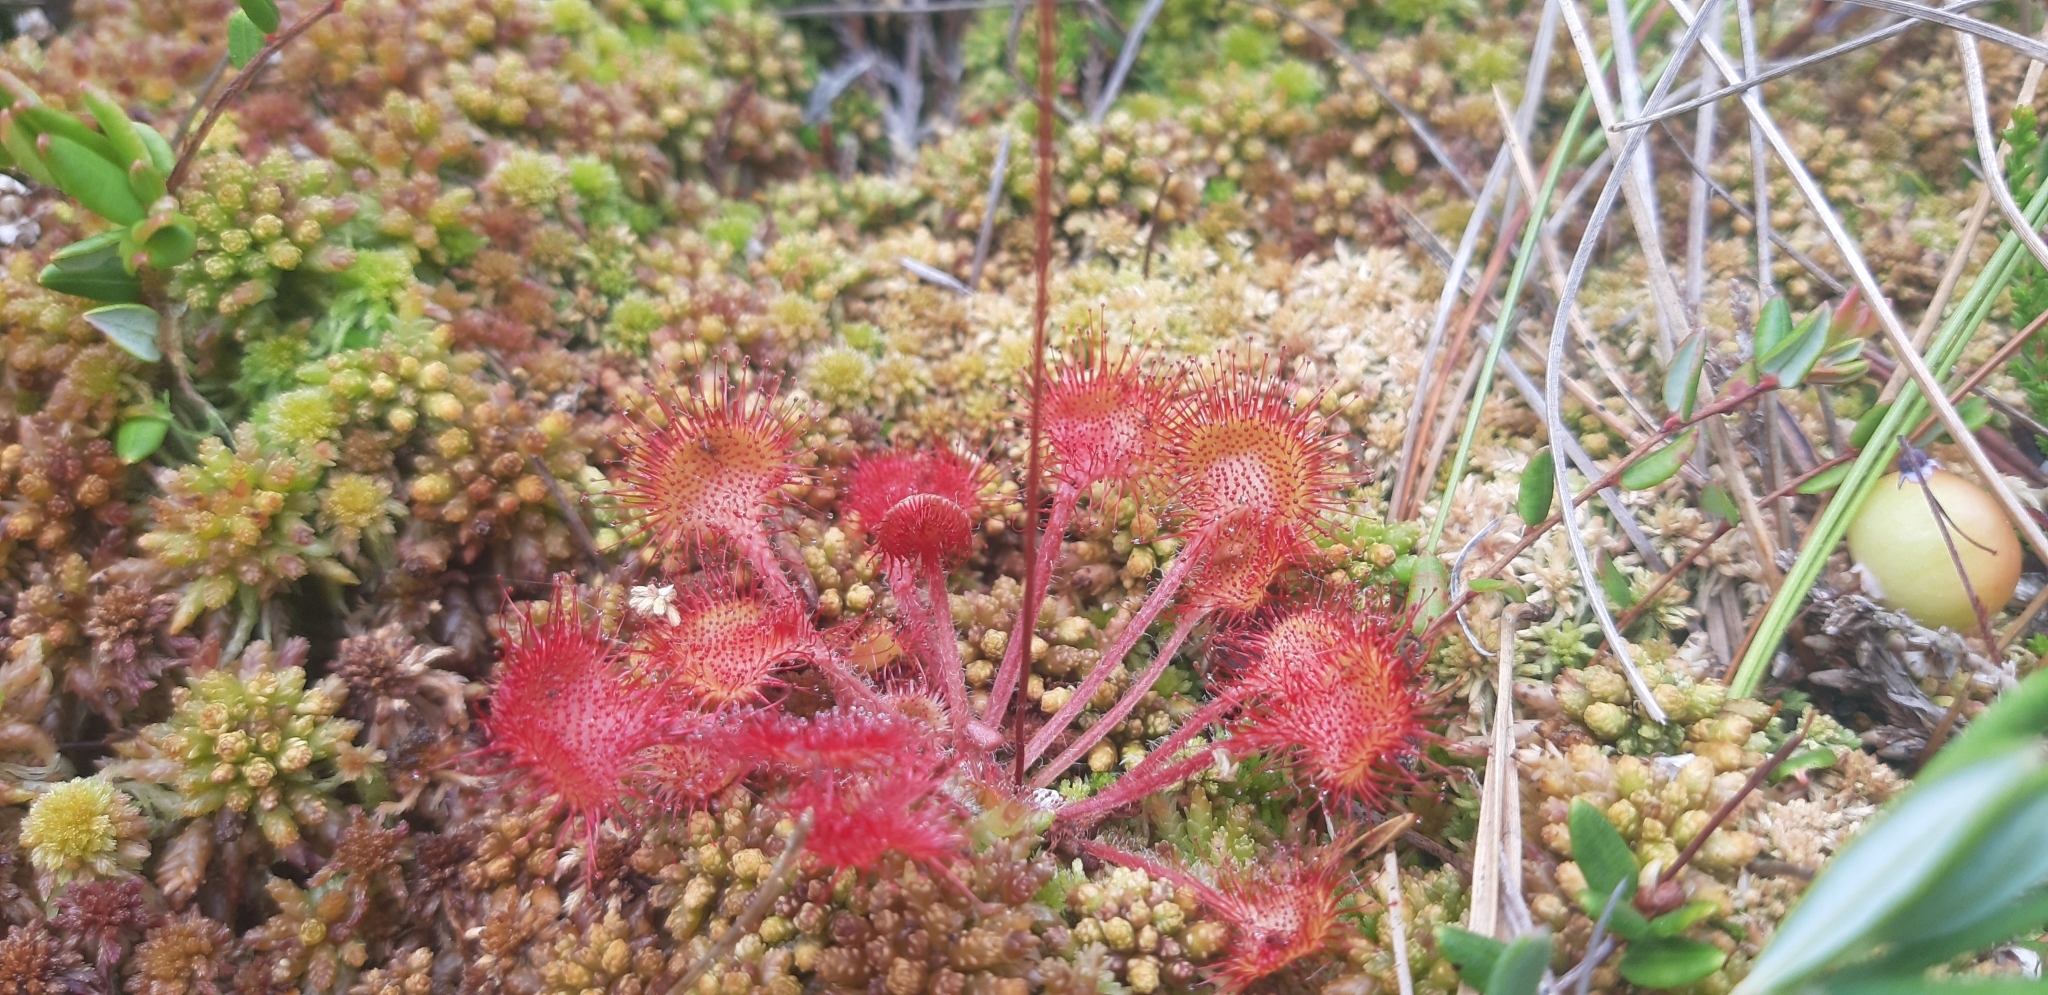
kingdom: Plantae
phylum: Tracheophyta
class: Magnoliopsida
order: Caryophyllales
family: Droseraceae
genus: Drosera
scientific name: Drosera rotundifolia
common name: Round-leaved sundew
